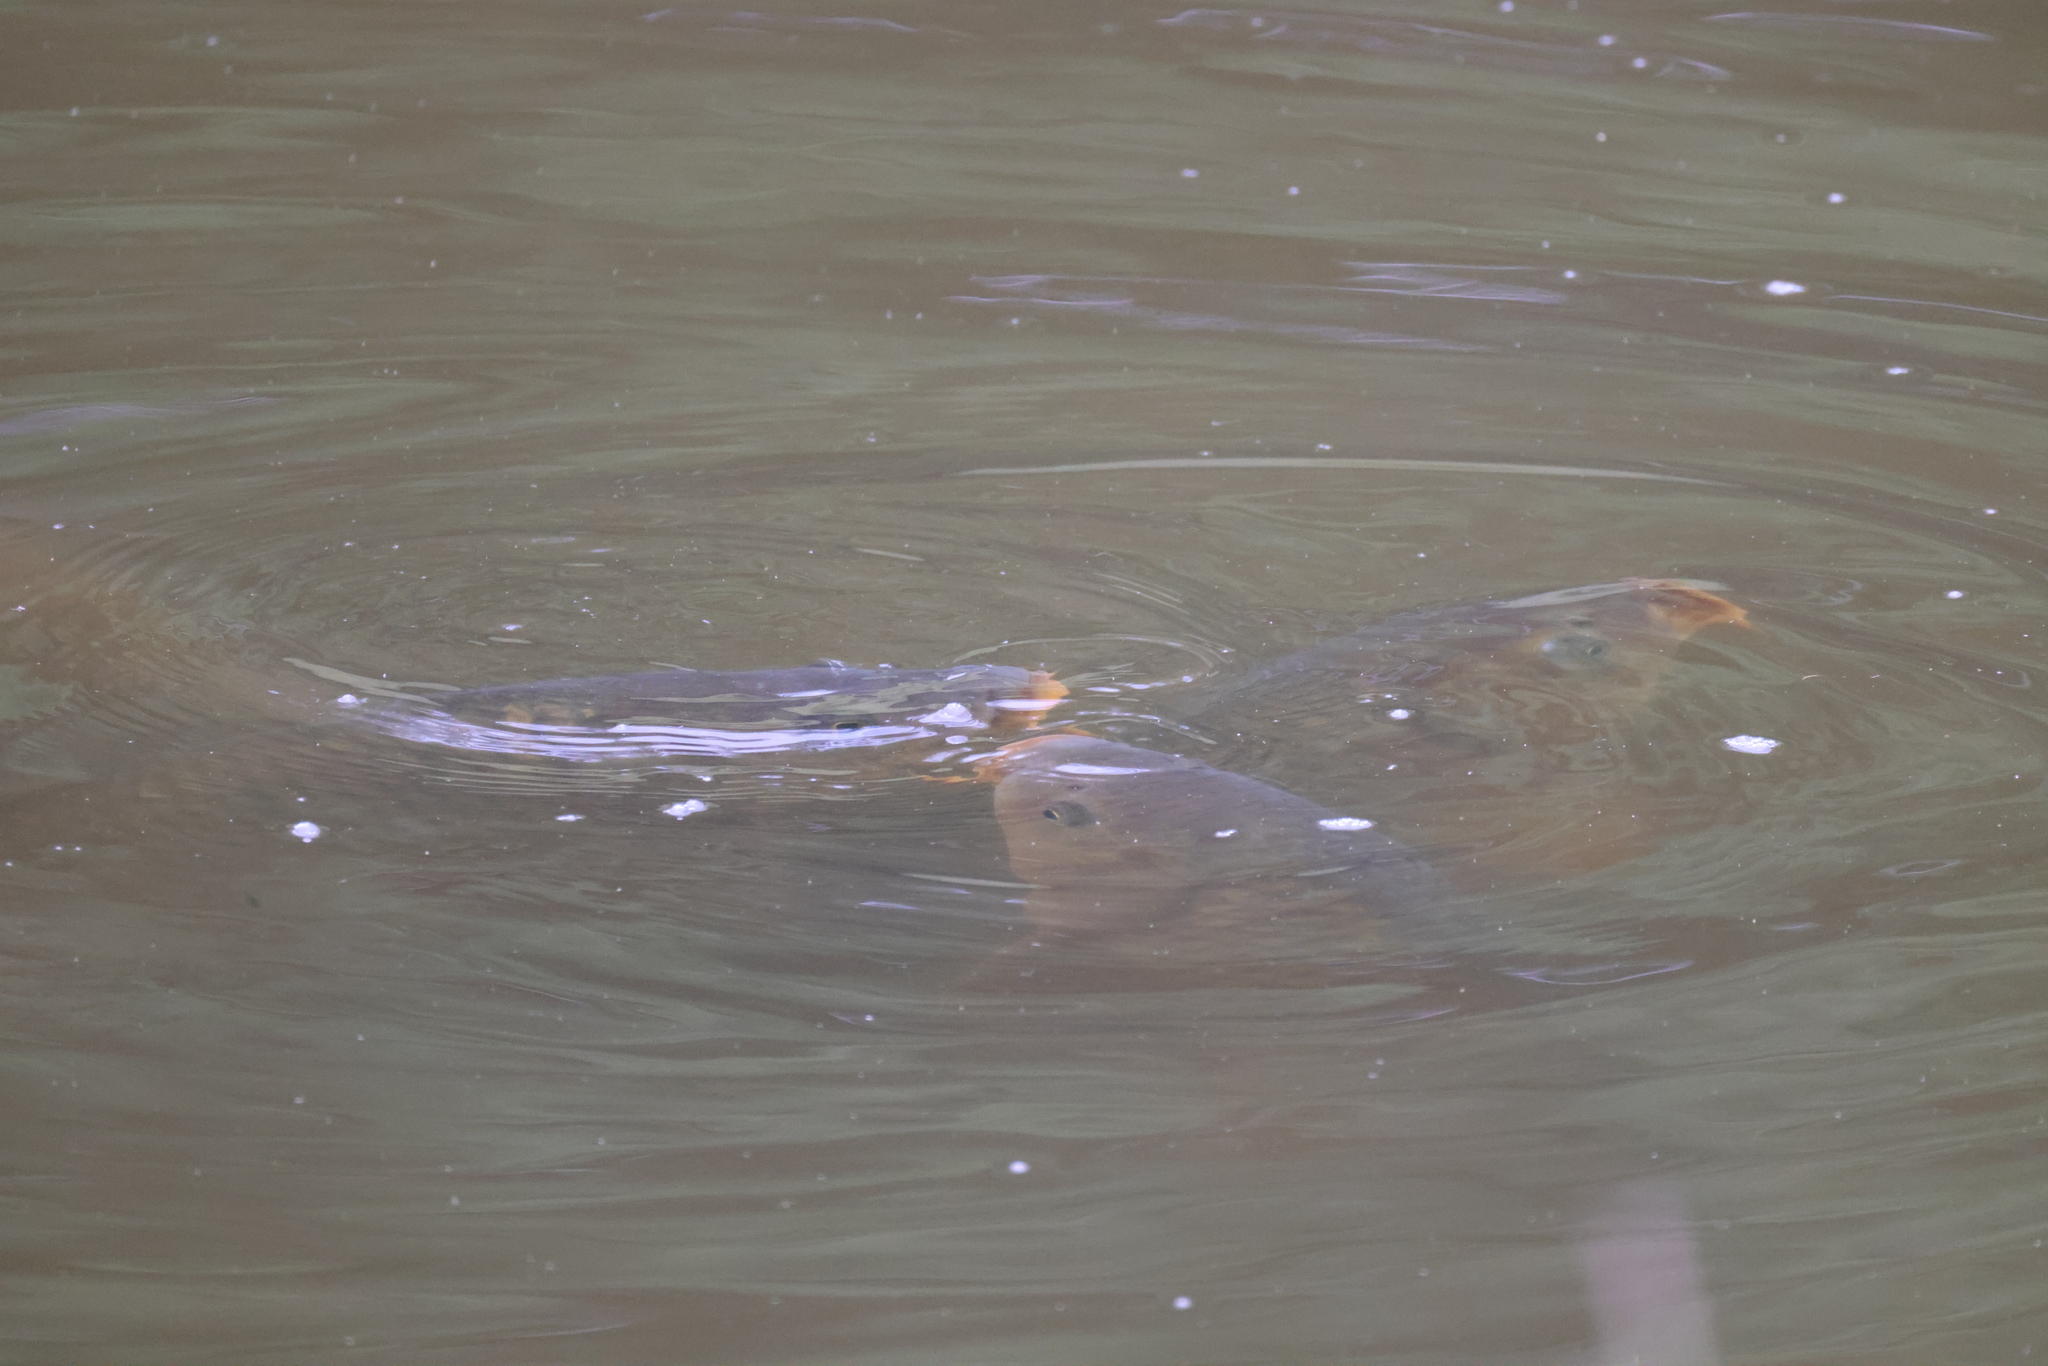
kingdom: Animalia
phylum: Chordata
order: Cypriniformes
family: Cyprinidae
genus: Cyprinus
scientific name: Cyprinus carpio
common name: Common carp
